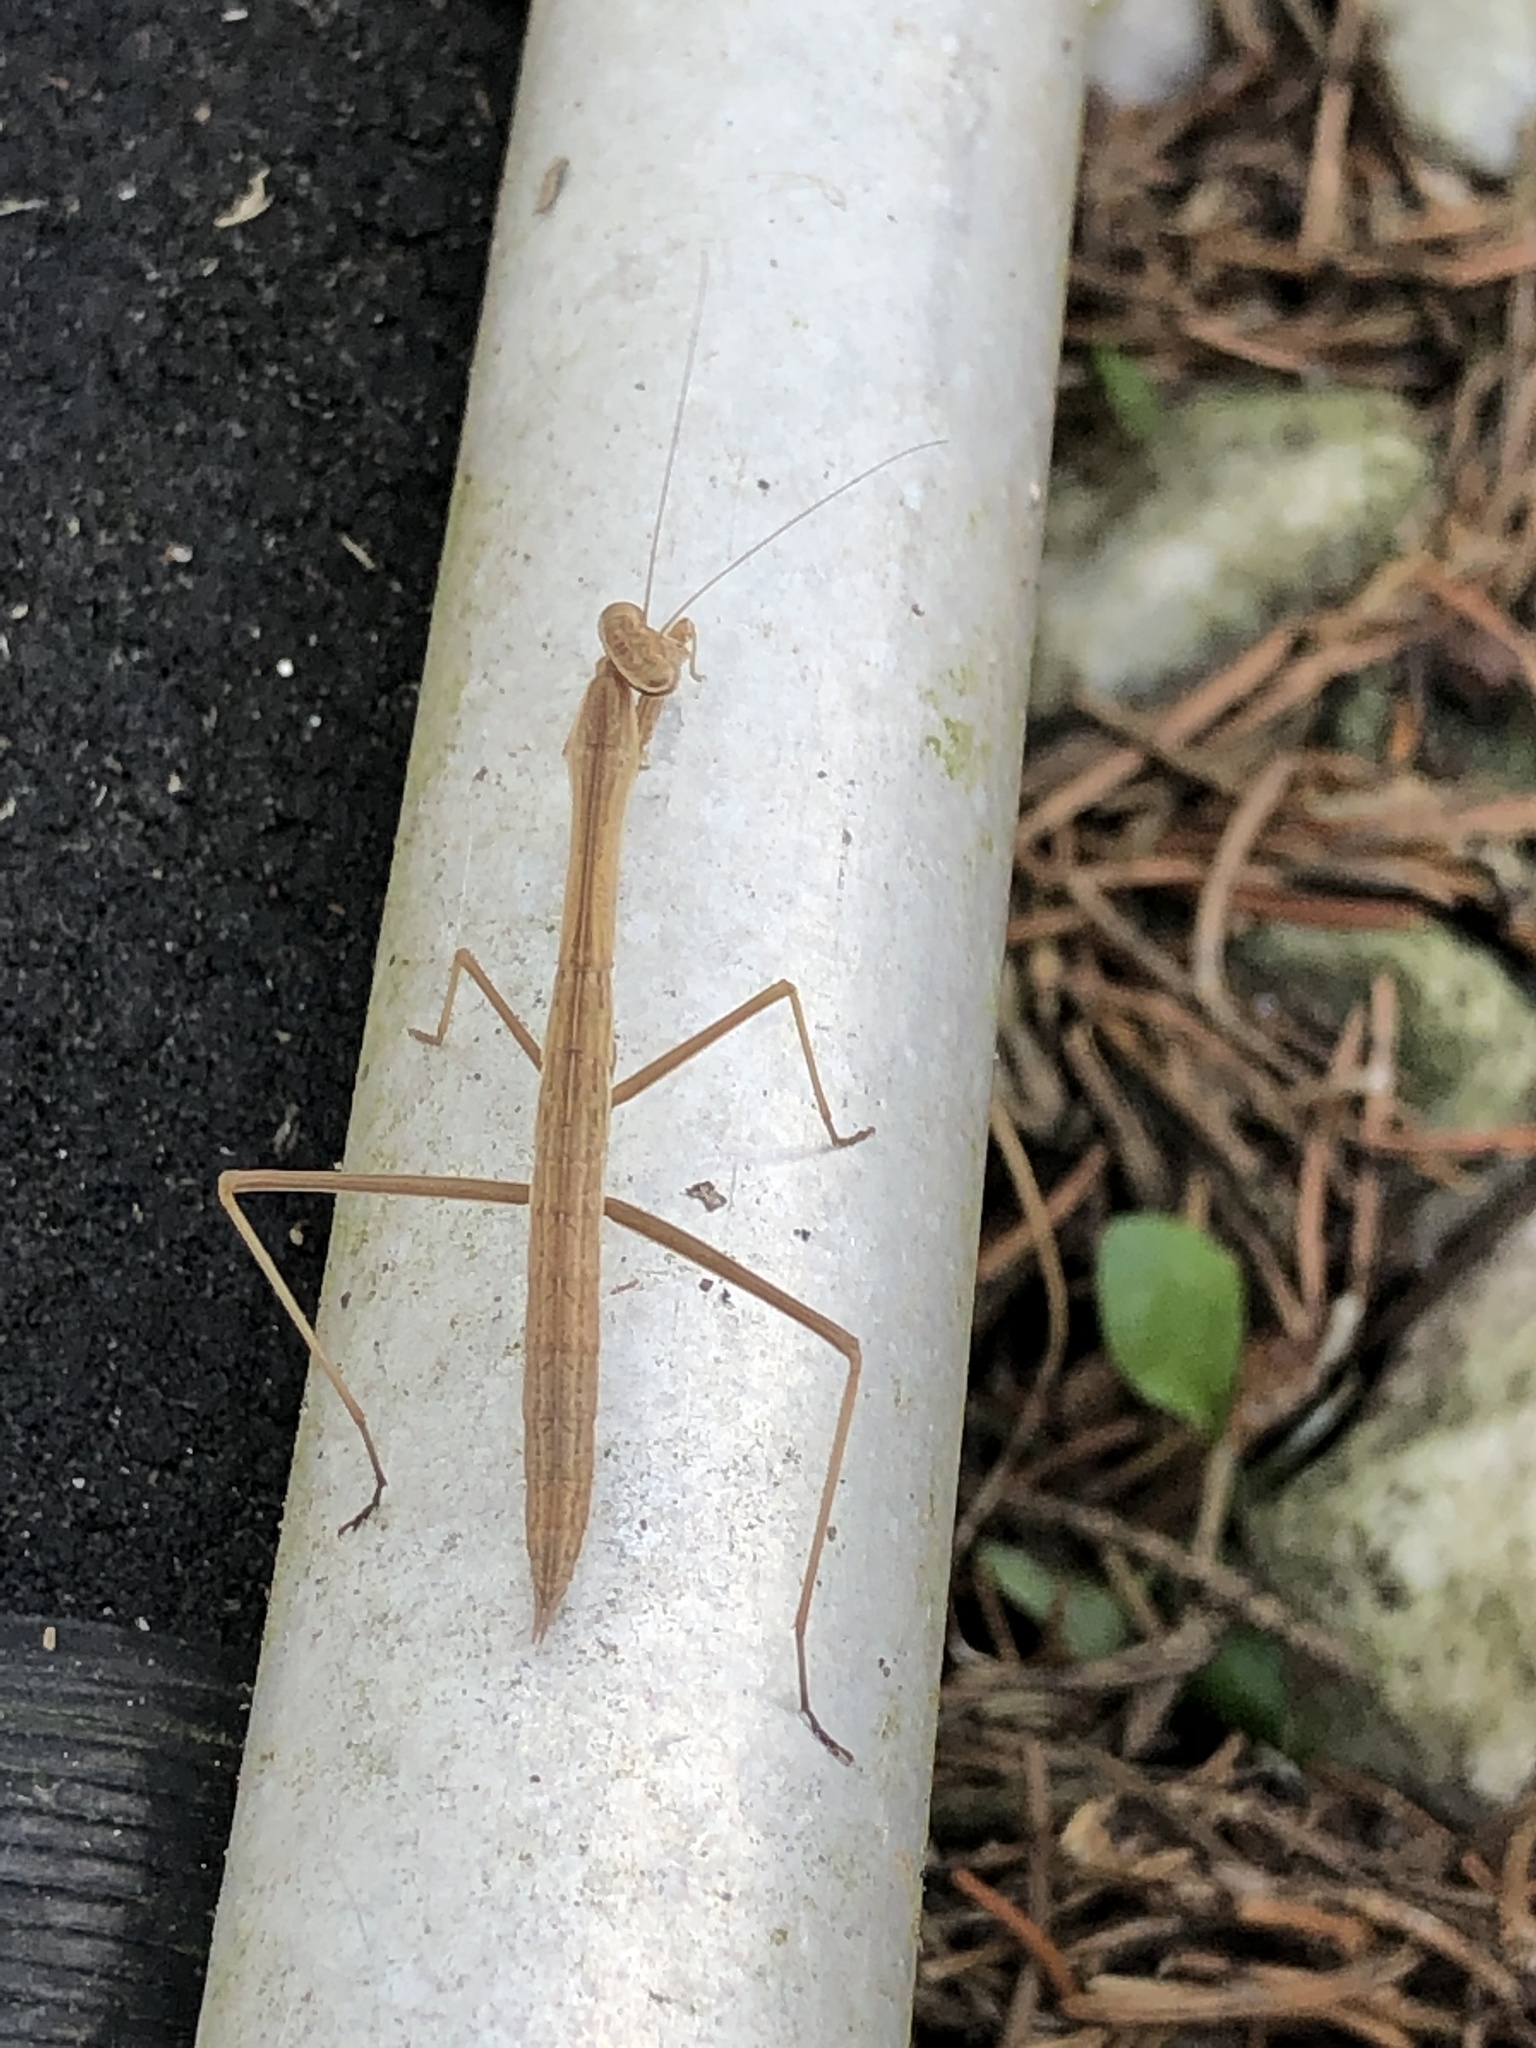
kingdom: Animalia
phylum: Arthropoda
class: Insecta
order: Mantodea
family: Mantidae
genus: Tenodera
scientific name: Tenodera sinensis
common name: Chinese mantis
